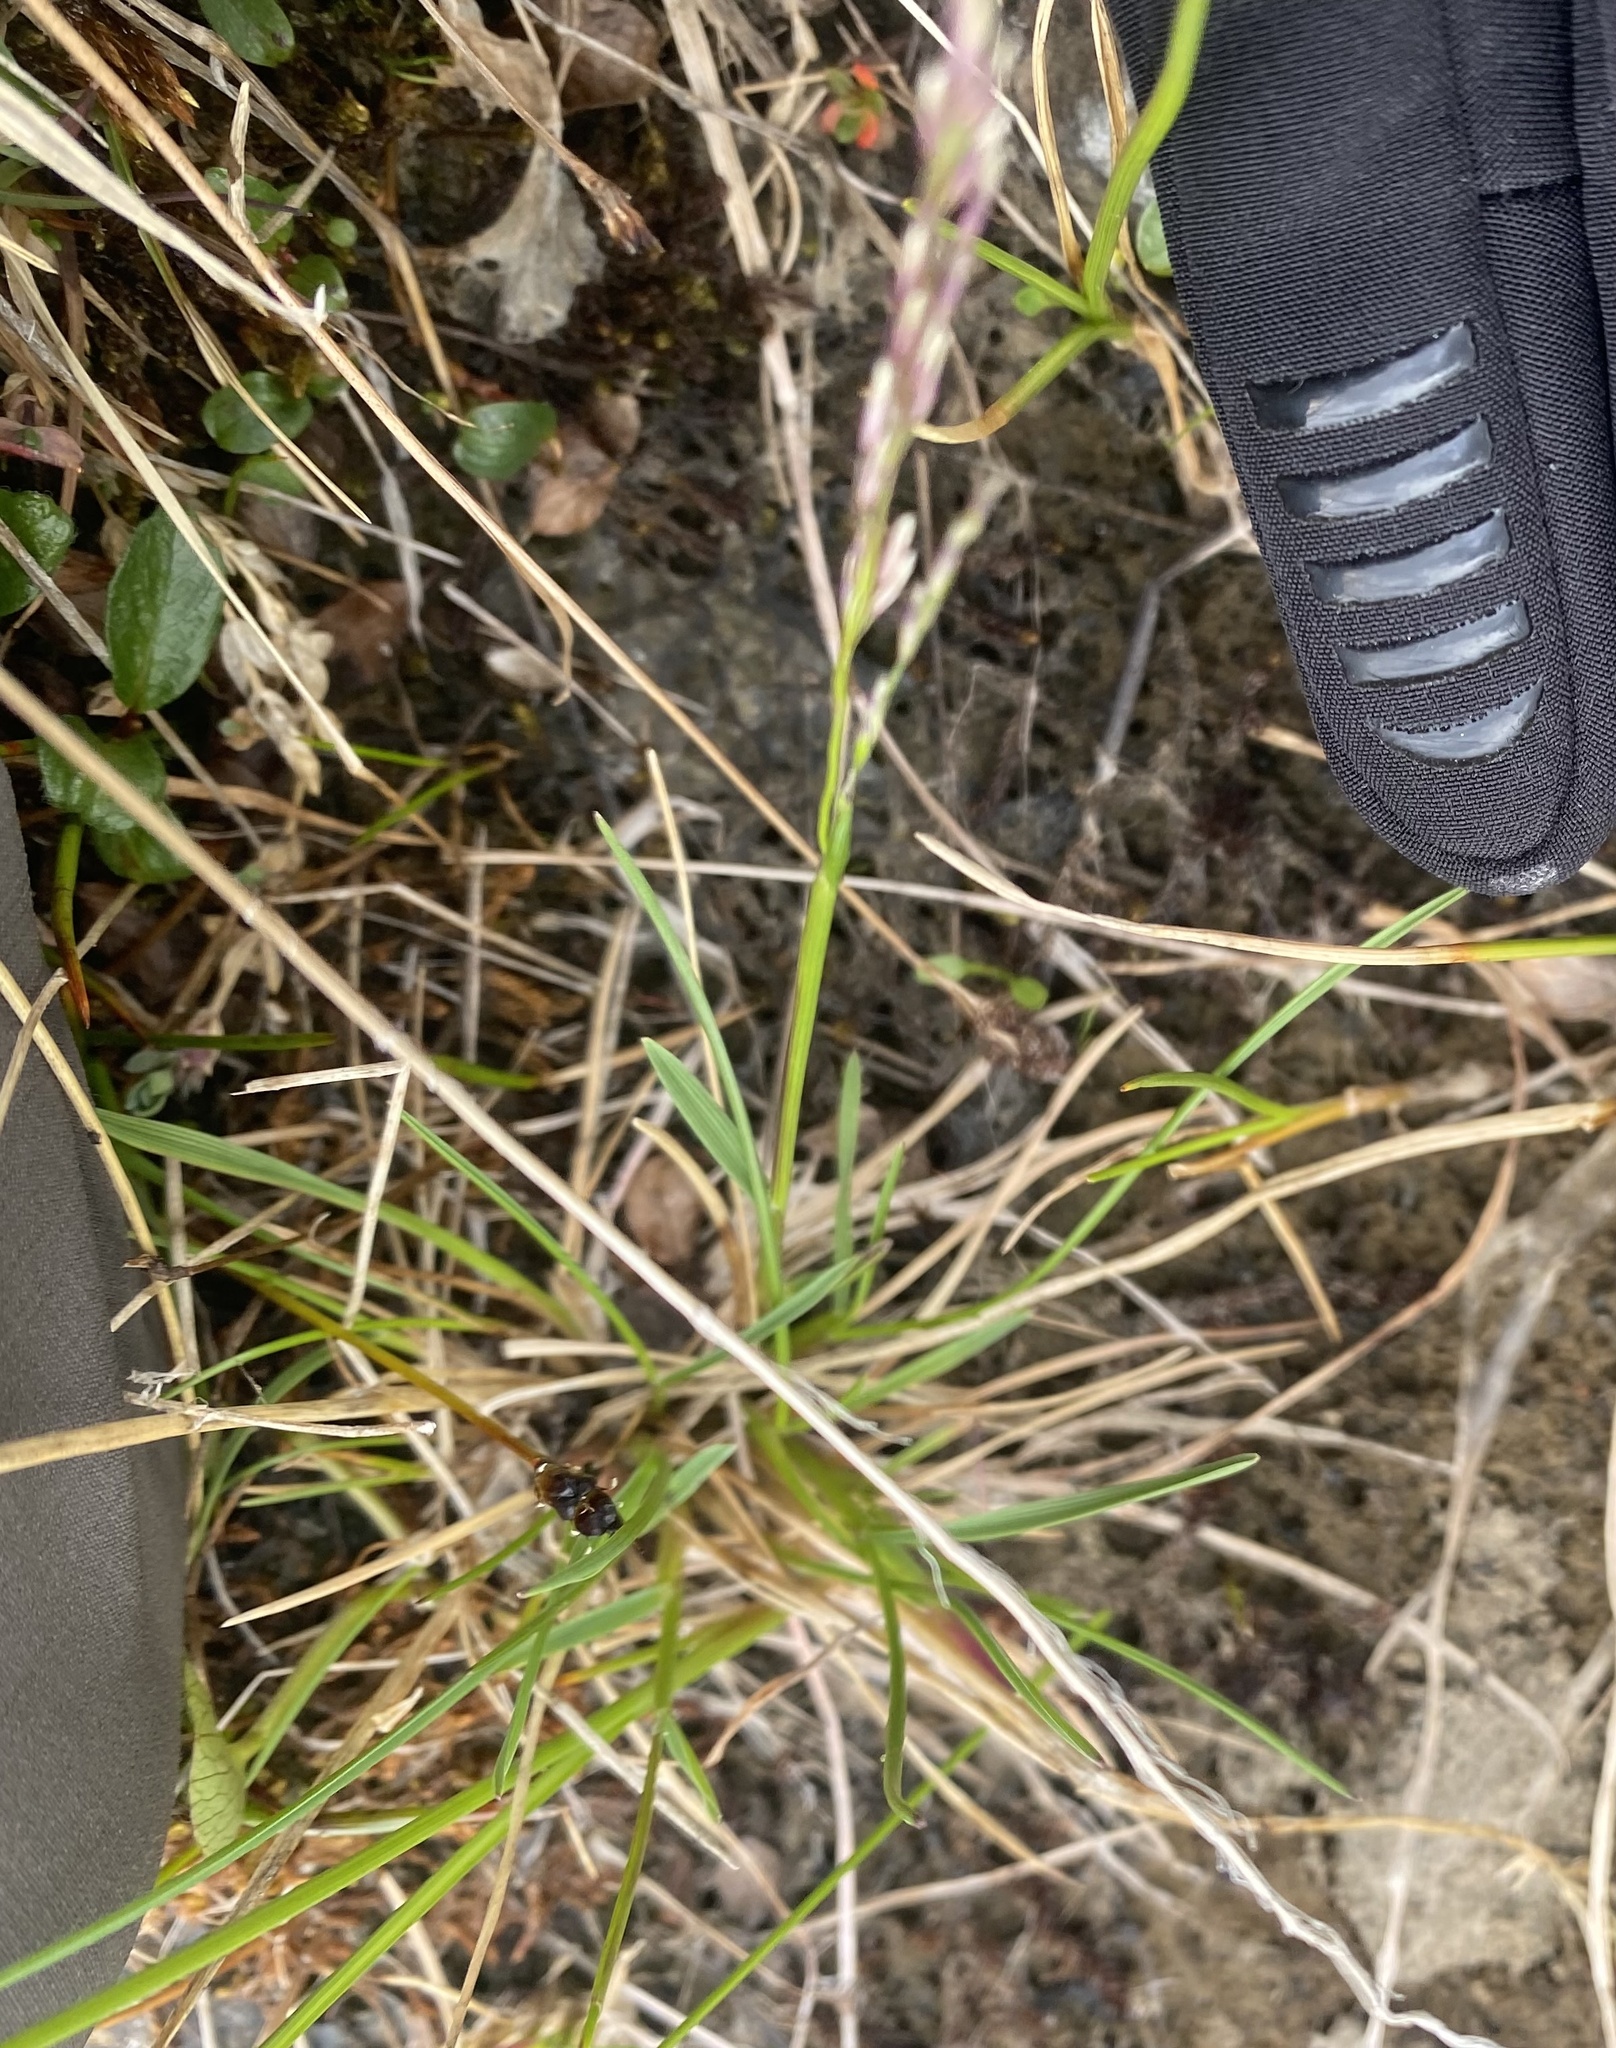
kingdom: Plantae
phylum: Tracheophyta
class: Liliopsida
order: Poales
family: Poaceae
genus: Deschampsia
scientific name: Deschampsia
